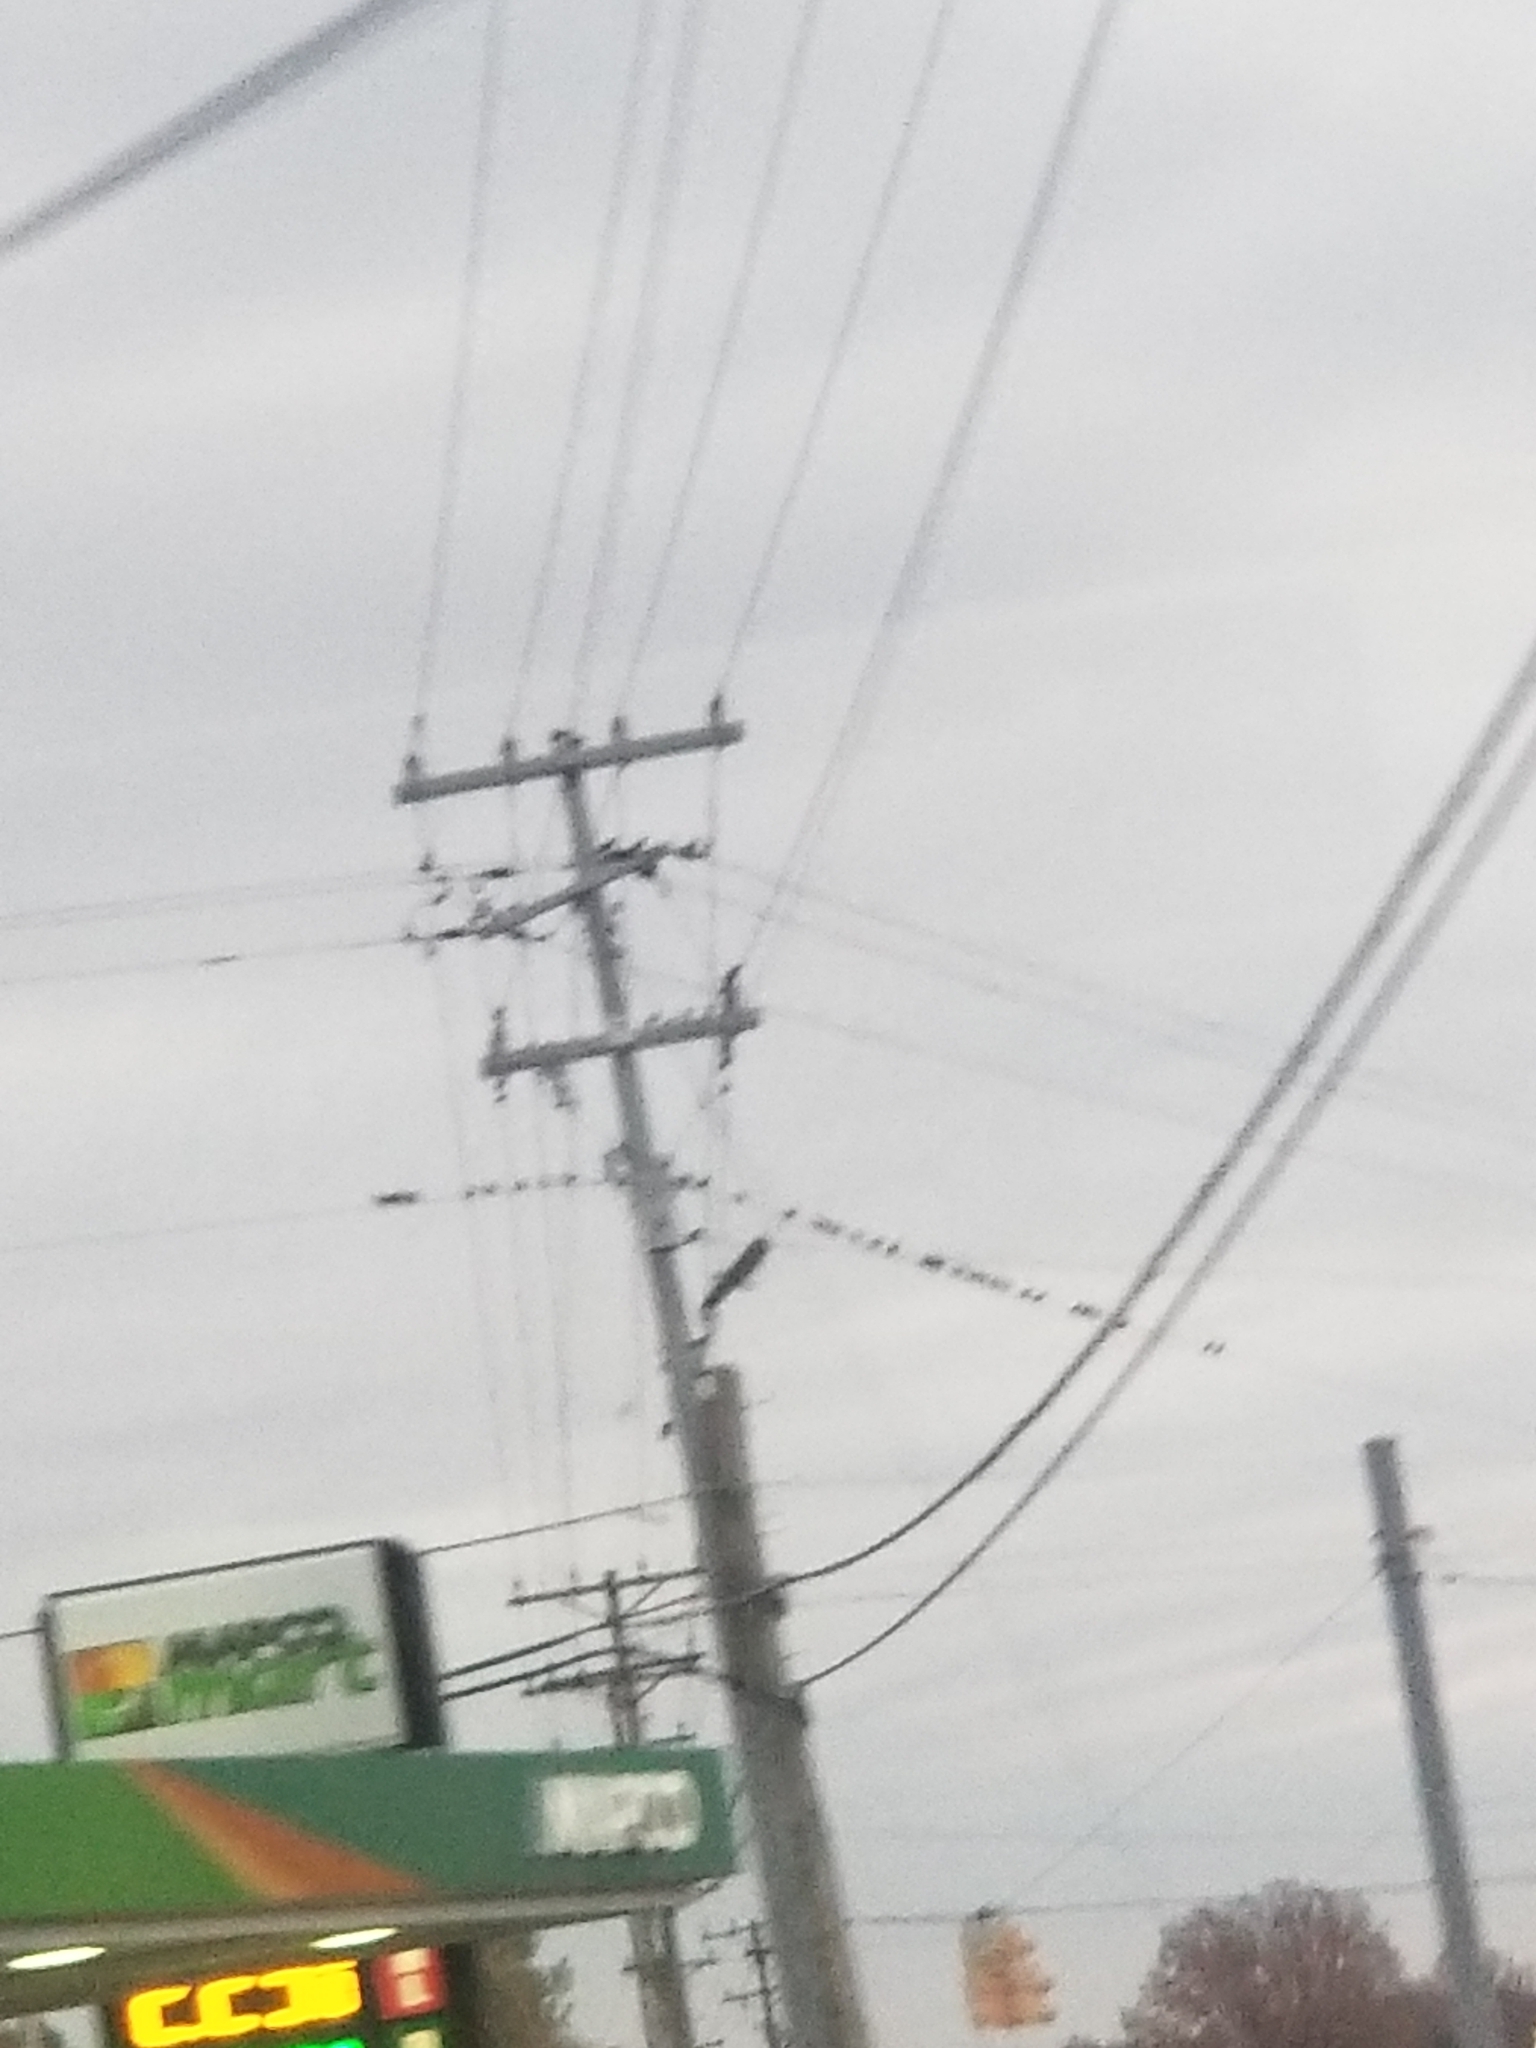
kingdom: Animalia
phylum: Chordata
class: Aves
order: Passeriformes
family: Sturnidae
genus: Sturnus
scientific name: Sturnus vulgaris
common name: Common starling
